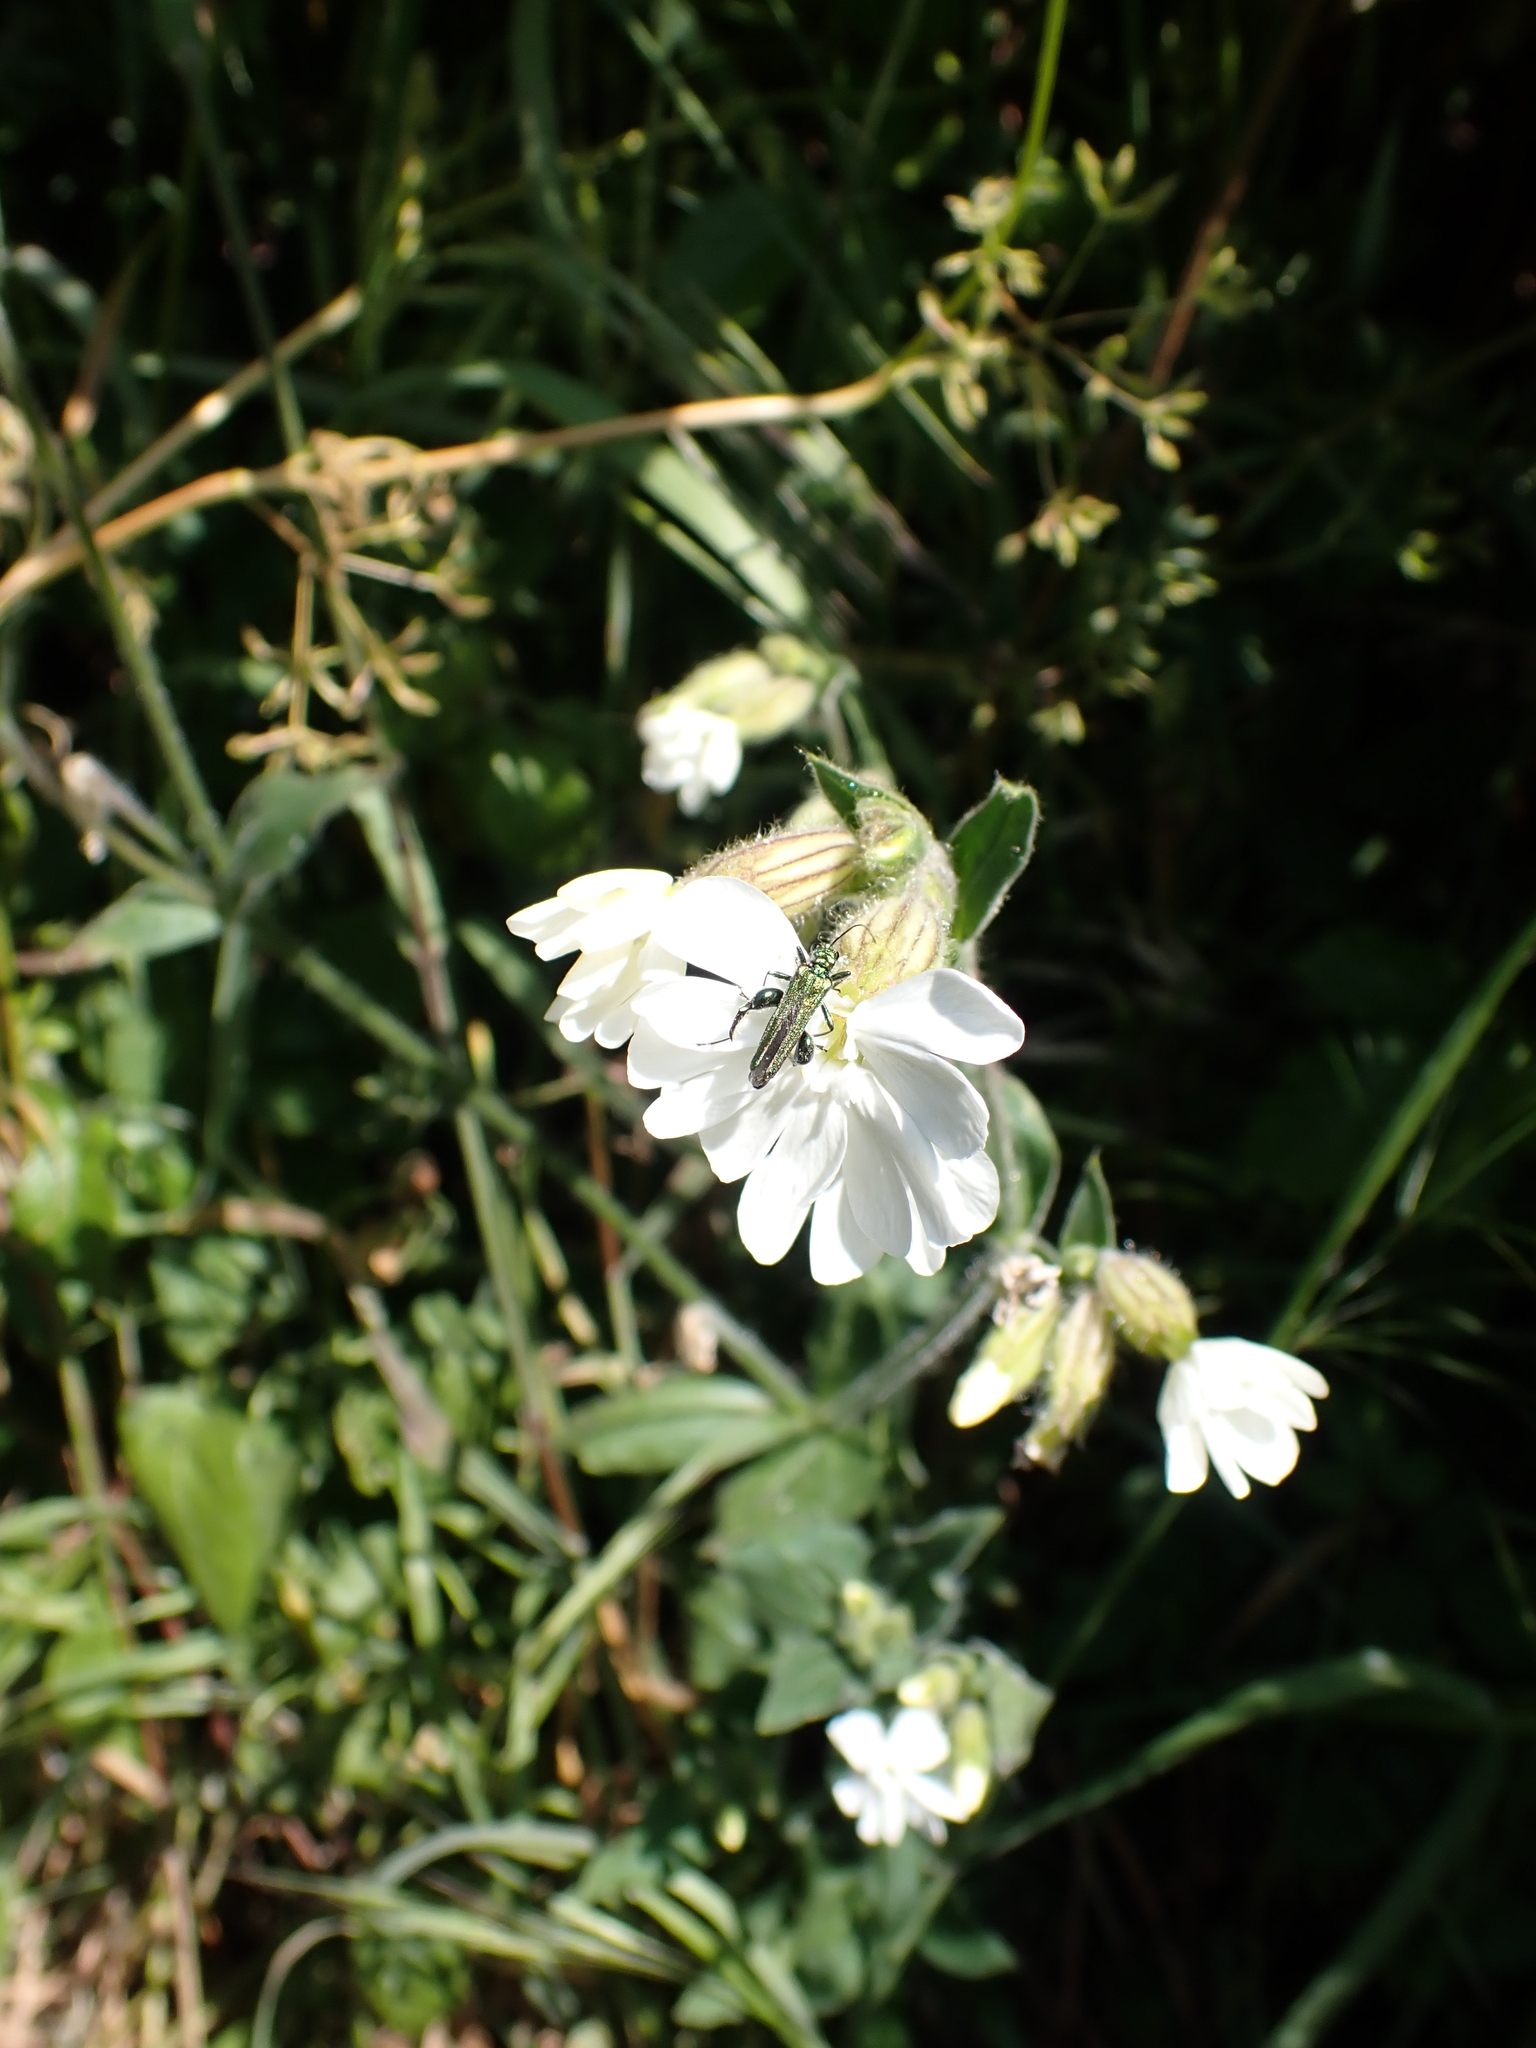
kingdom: Plantae
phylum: Tracheophyta
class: Magnoliopsida
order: Caryophyllales
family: Caryophyllaceae
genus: Silene
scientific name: Silene latifolia
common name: White campion
